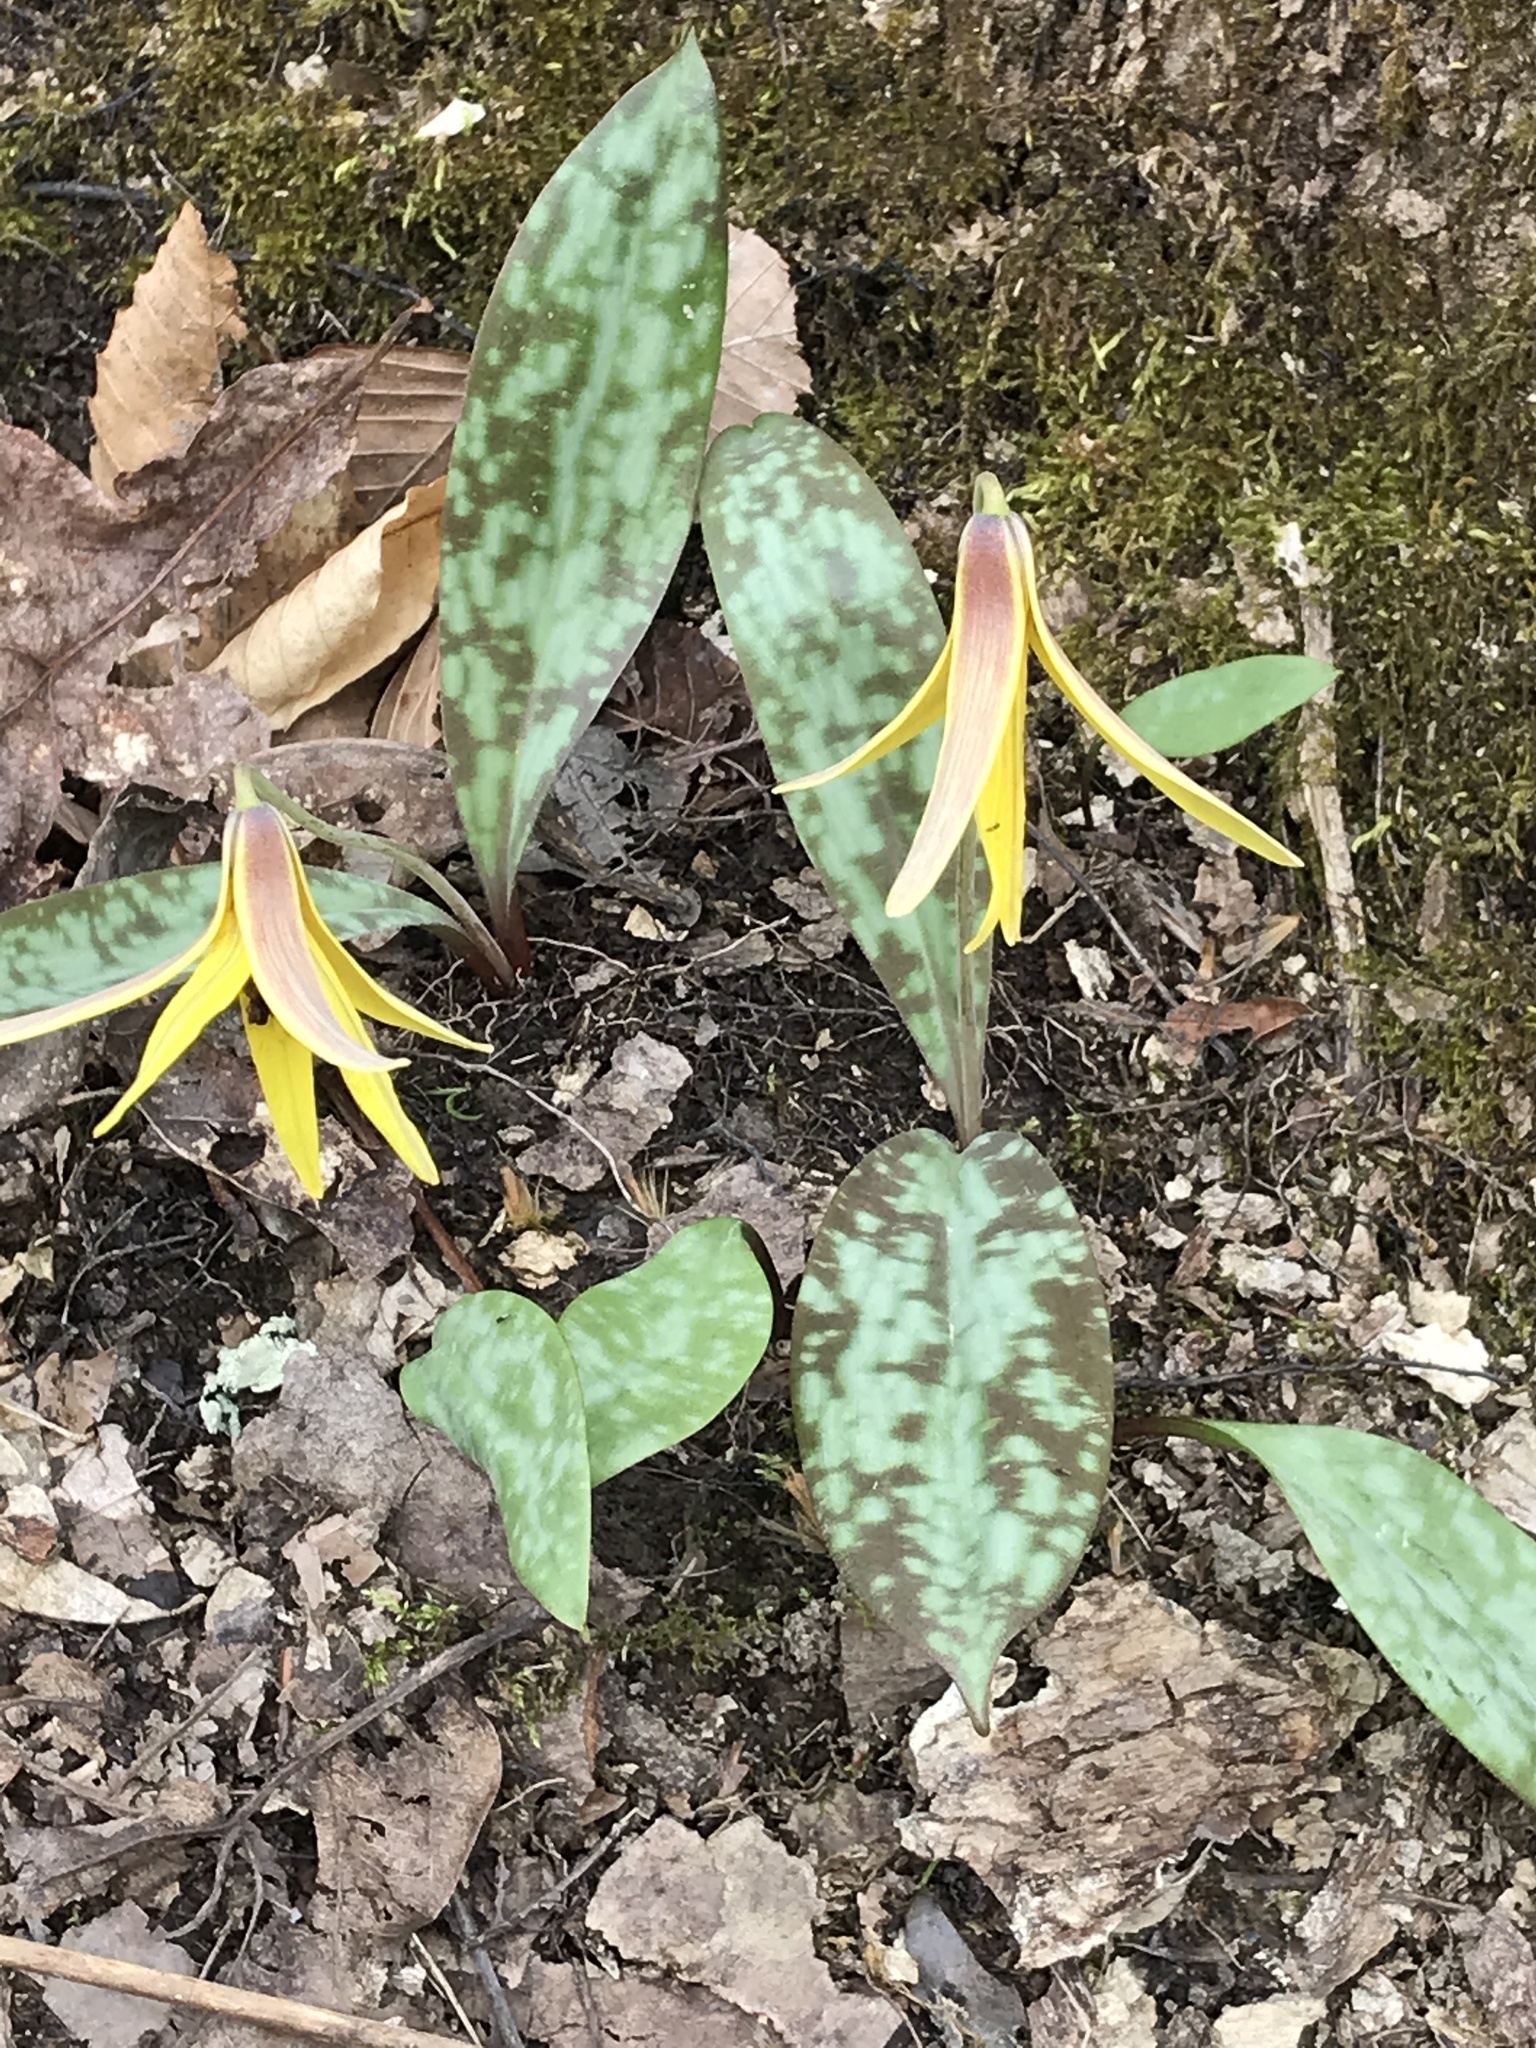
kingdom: Plantae
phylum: Tracheophyta
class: Liliopsida
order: Liliales
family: Liliaceae
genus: Erythronium
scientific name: Erythronium americanum
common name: Yellow adder's-tongue
